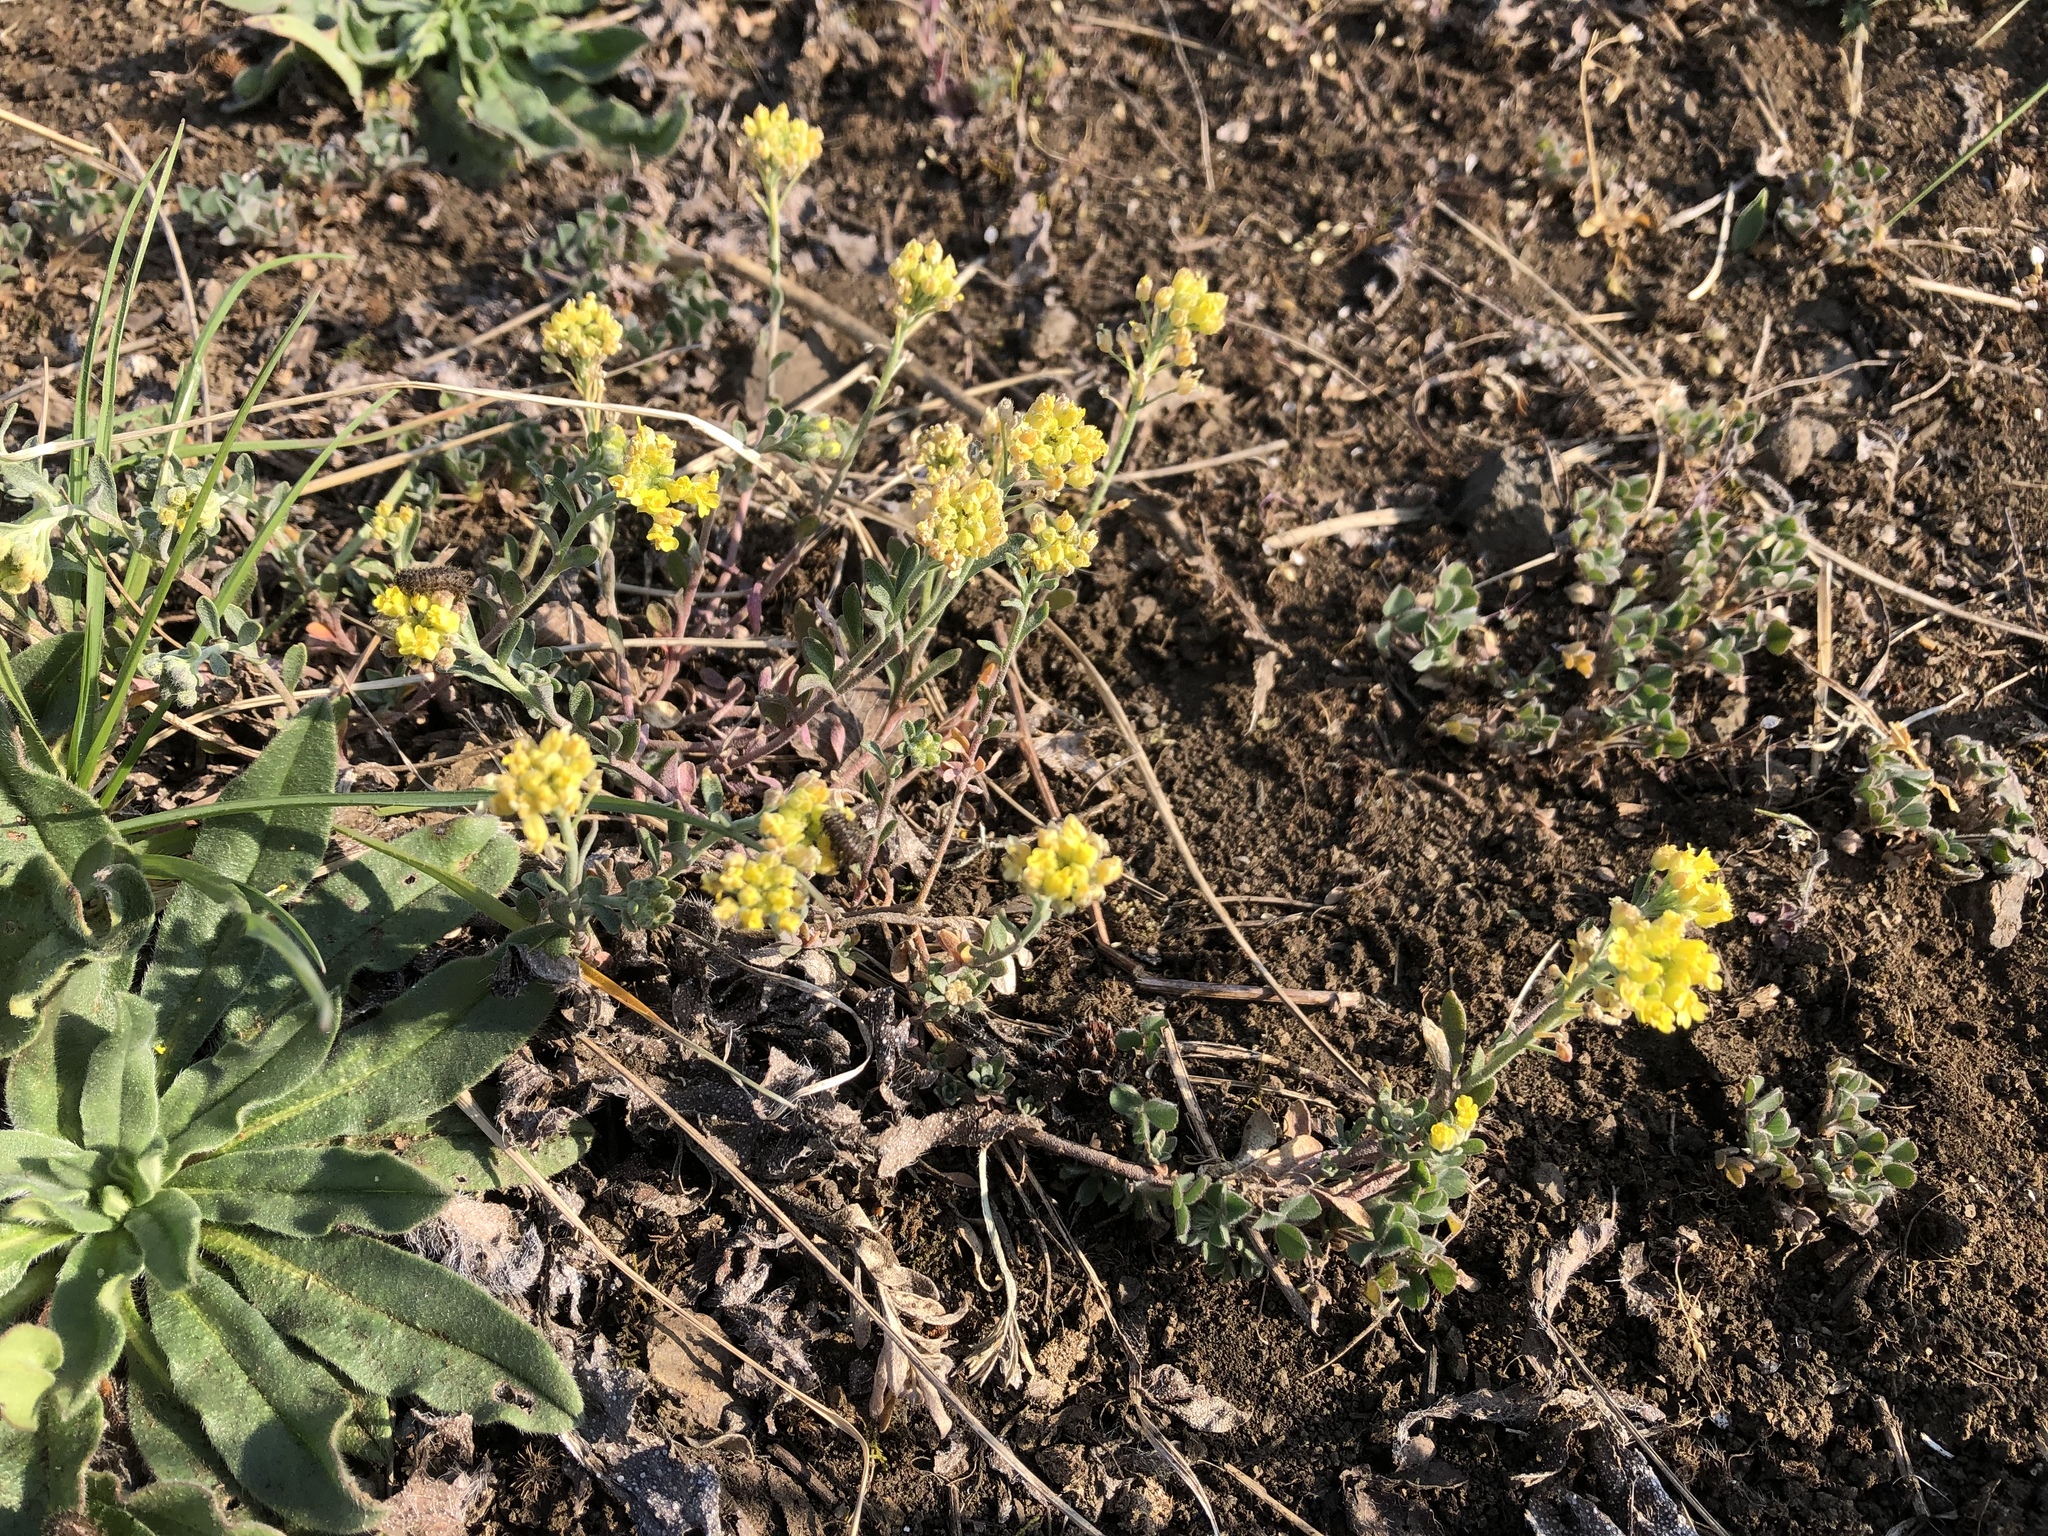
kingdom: Plantae
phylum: Tracheophyta
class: Magnoliopsida
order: Brassicales
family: Brassicaceae
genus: Alyssum
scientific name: Alyssum gmelinii
